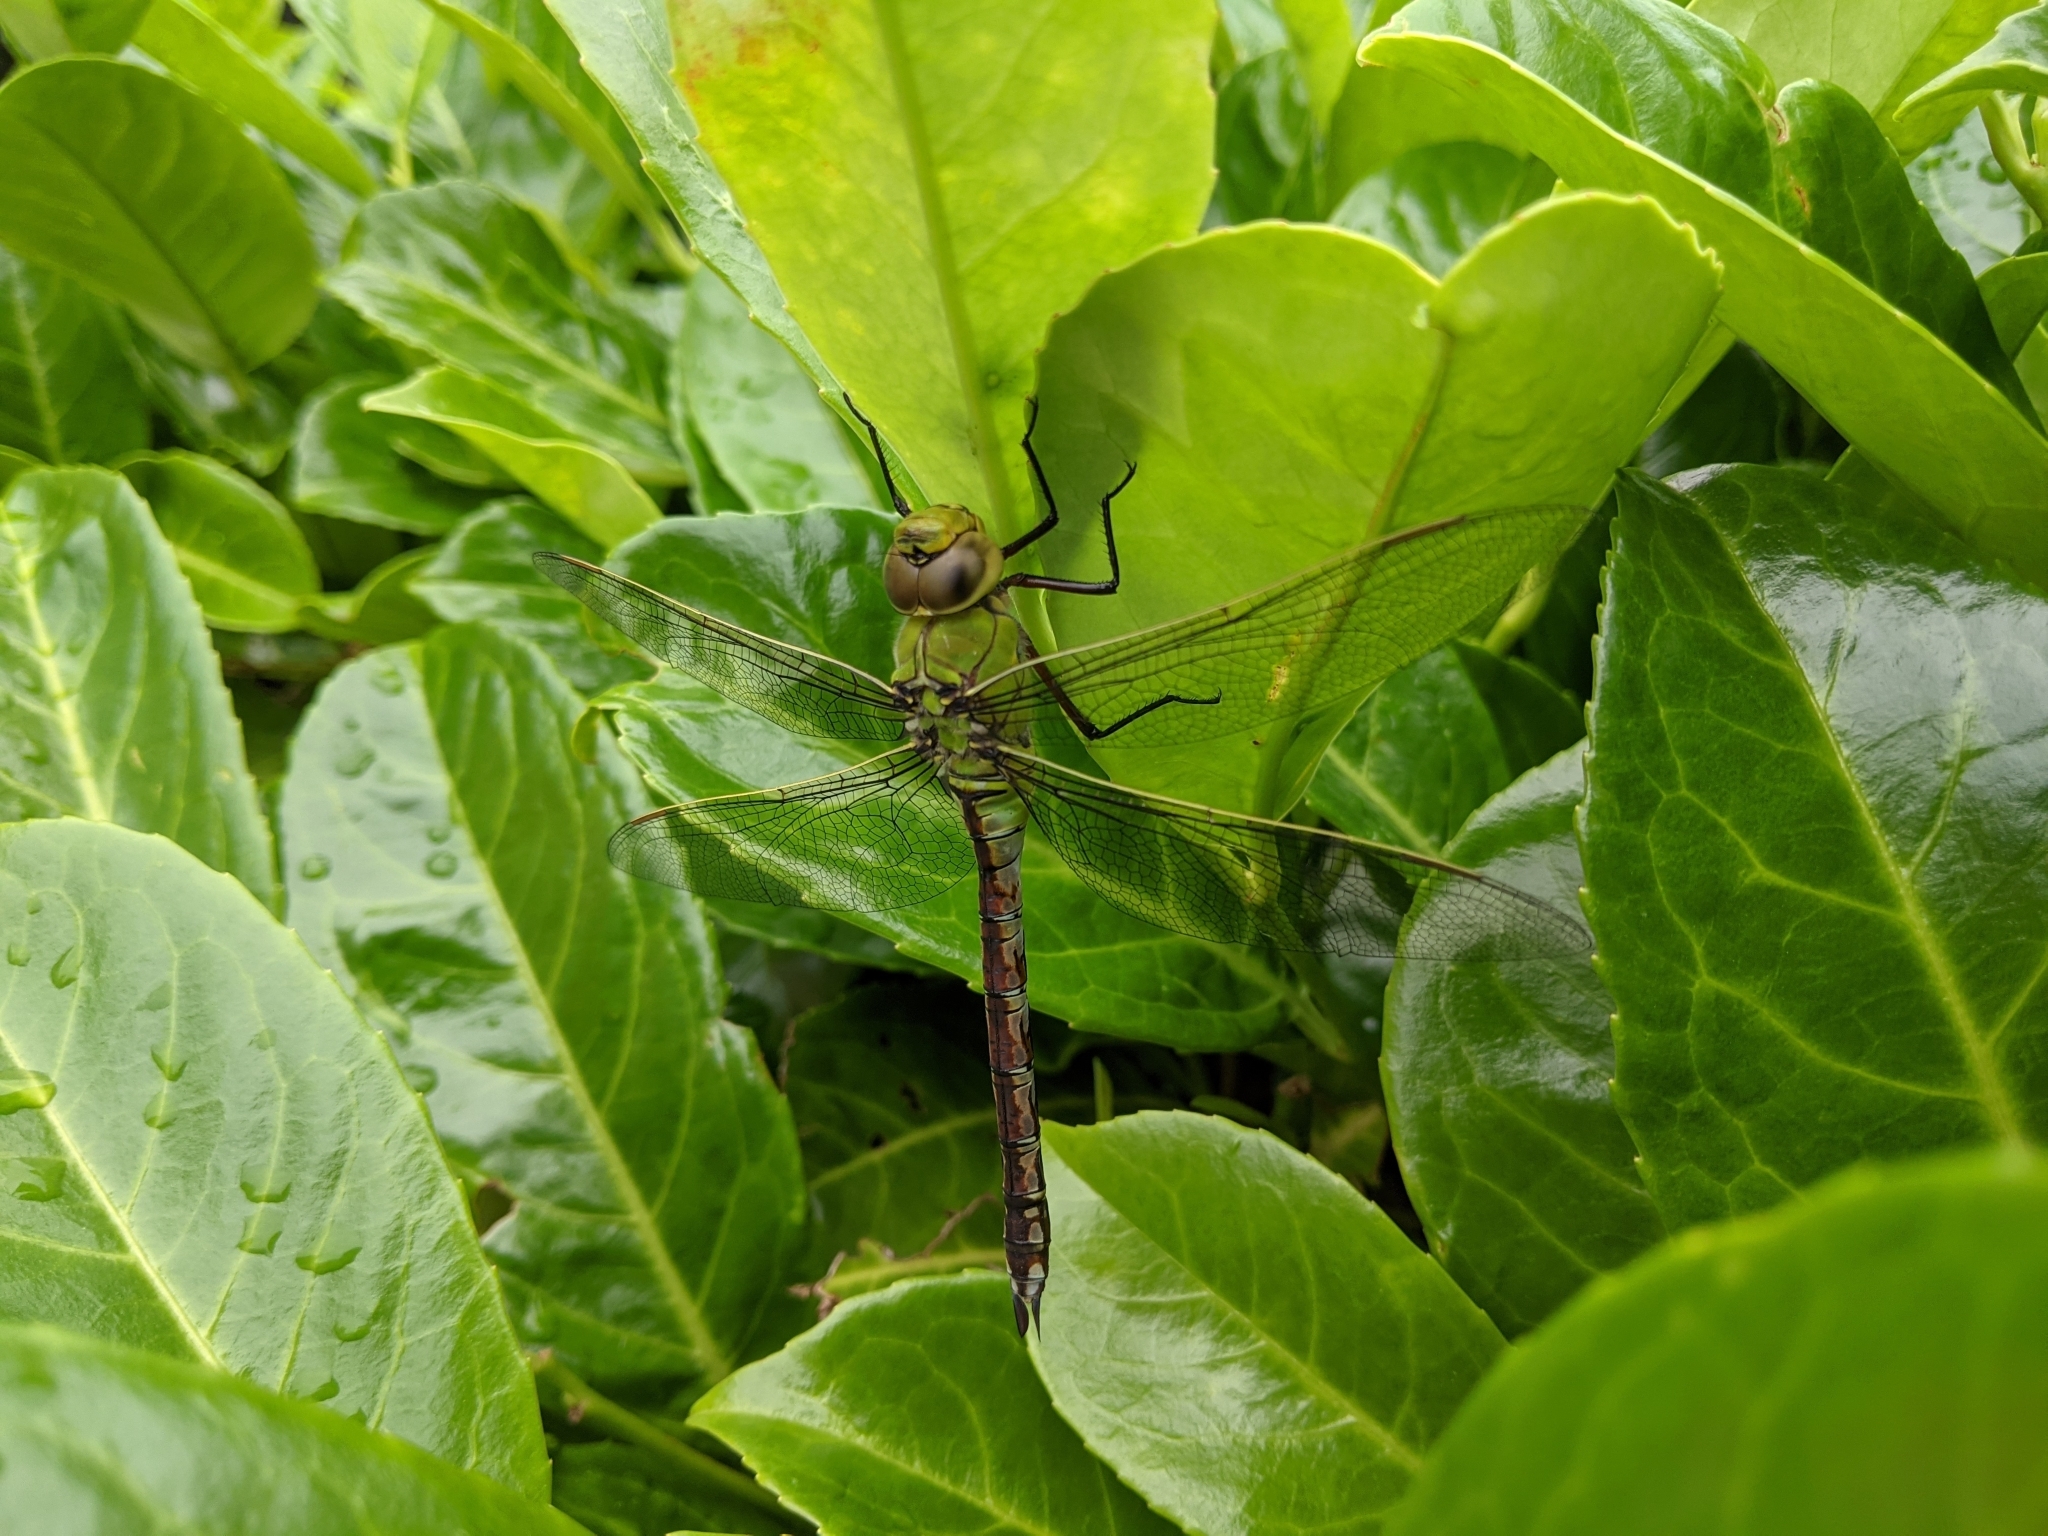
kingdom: Animalia
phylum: Arthropoda
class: Insecta
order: Odonata
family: Aeshnidae
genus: Anax
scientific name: Anax imperator
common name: Emperor dragonfly
